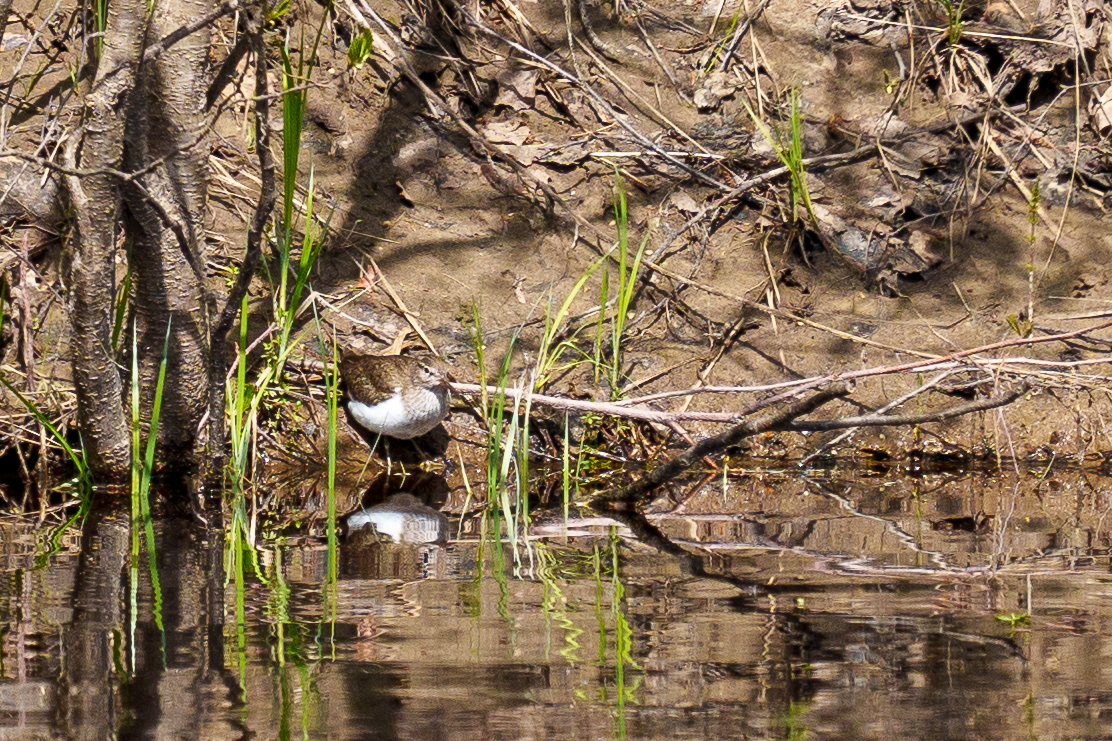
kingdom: Animalia
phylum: Chordata
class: Aves
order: Charadriiformes
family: Scolopacidae
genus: Actitis
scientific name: Actitis hypoleucos
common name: Common sandpiper
